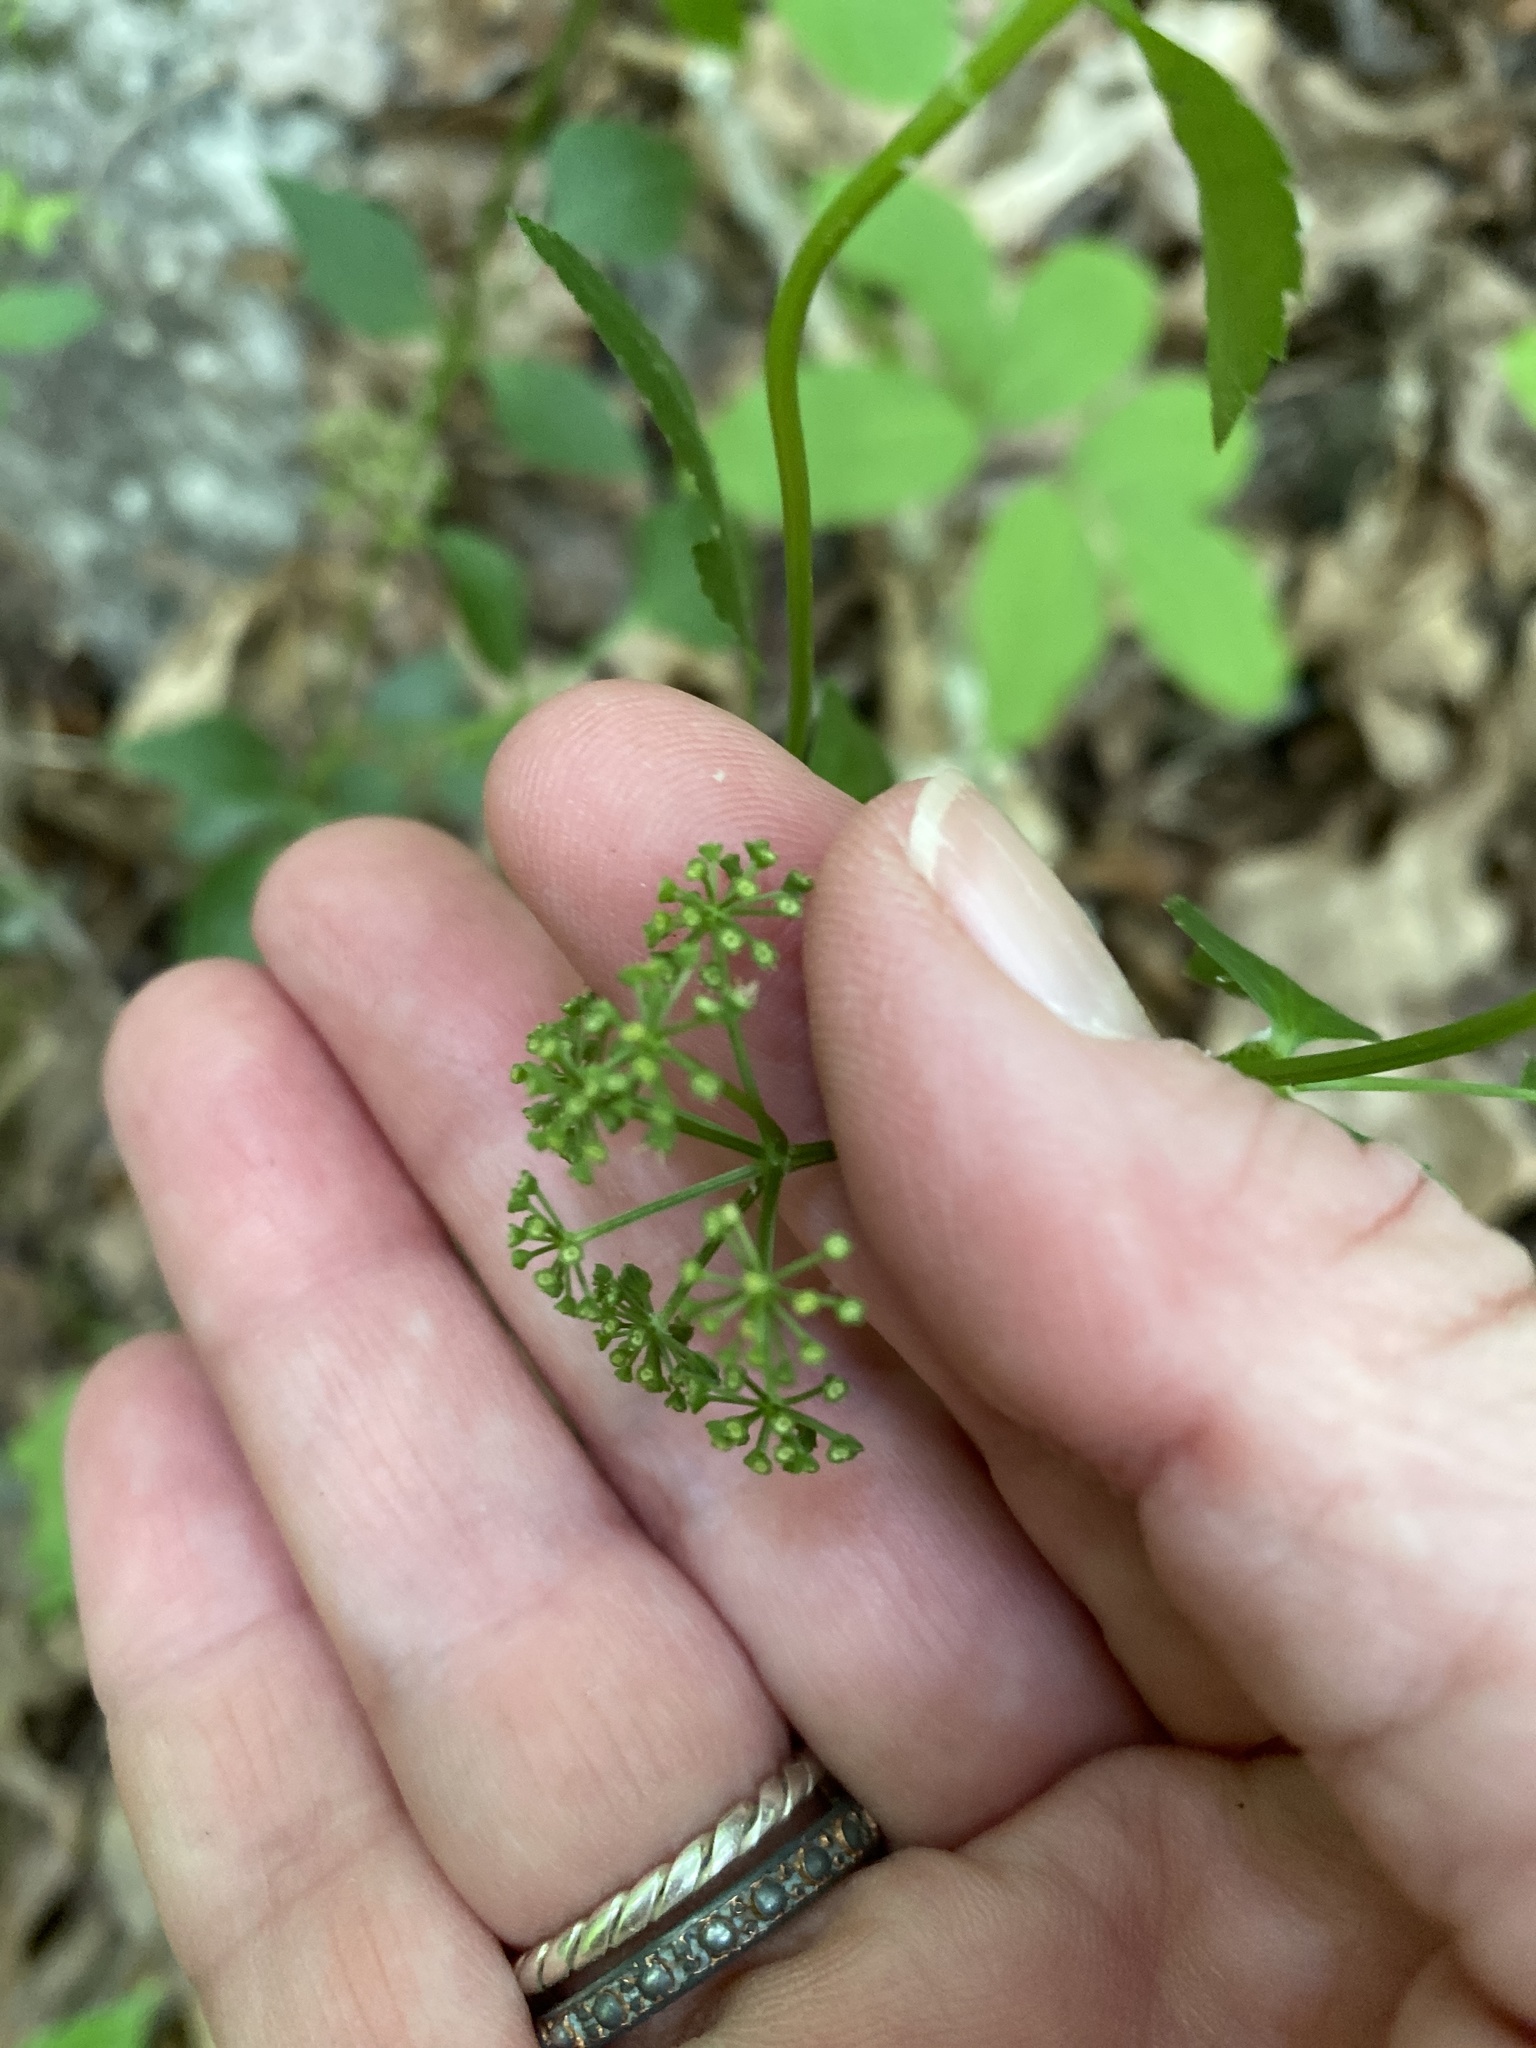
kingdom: Plantae
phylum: Tracheophyta
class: Magnoliopsida
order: Apiales
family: Apiaceae
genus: Thaspium
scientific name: Thaspium trifoliatum
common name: Purple meadow-parsnip
